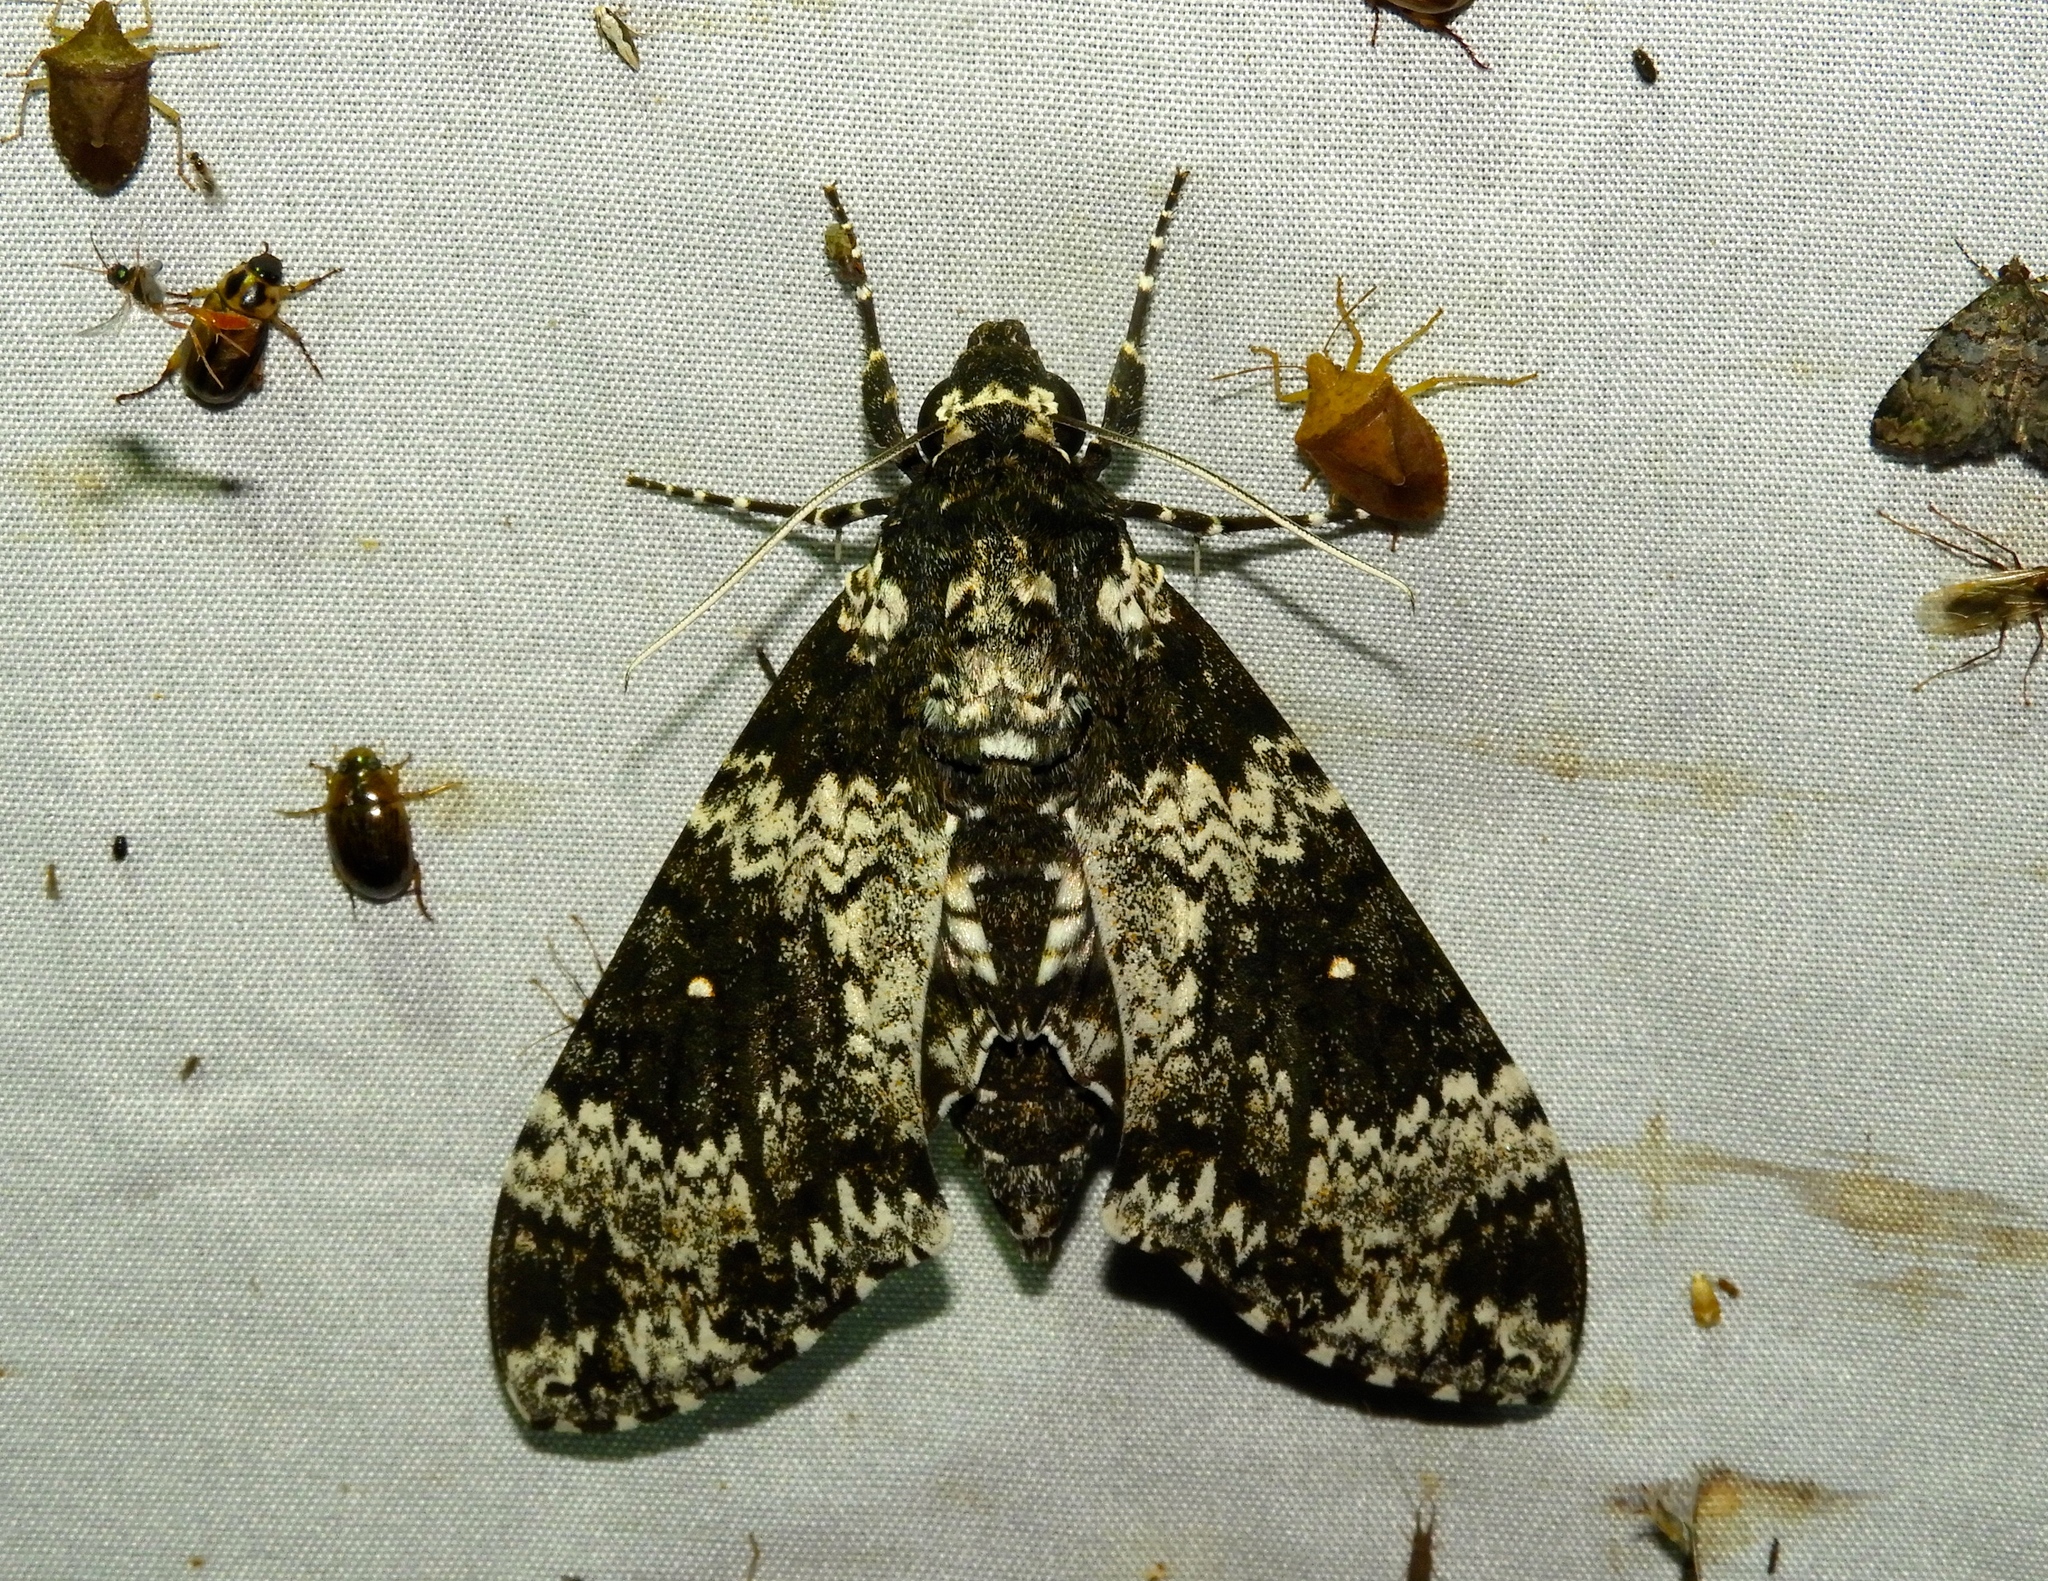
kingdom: Animalia
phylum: Arthropoda
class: Insecta
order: Lepidoptera
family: Sphingidae
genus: Manduca
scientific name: Manduca rustica
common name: Rustic sphinx
